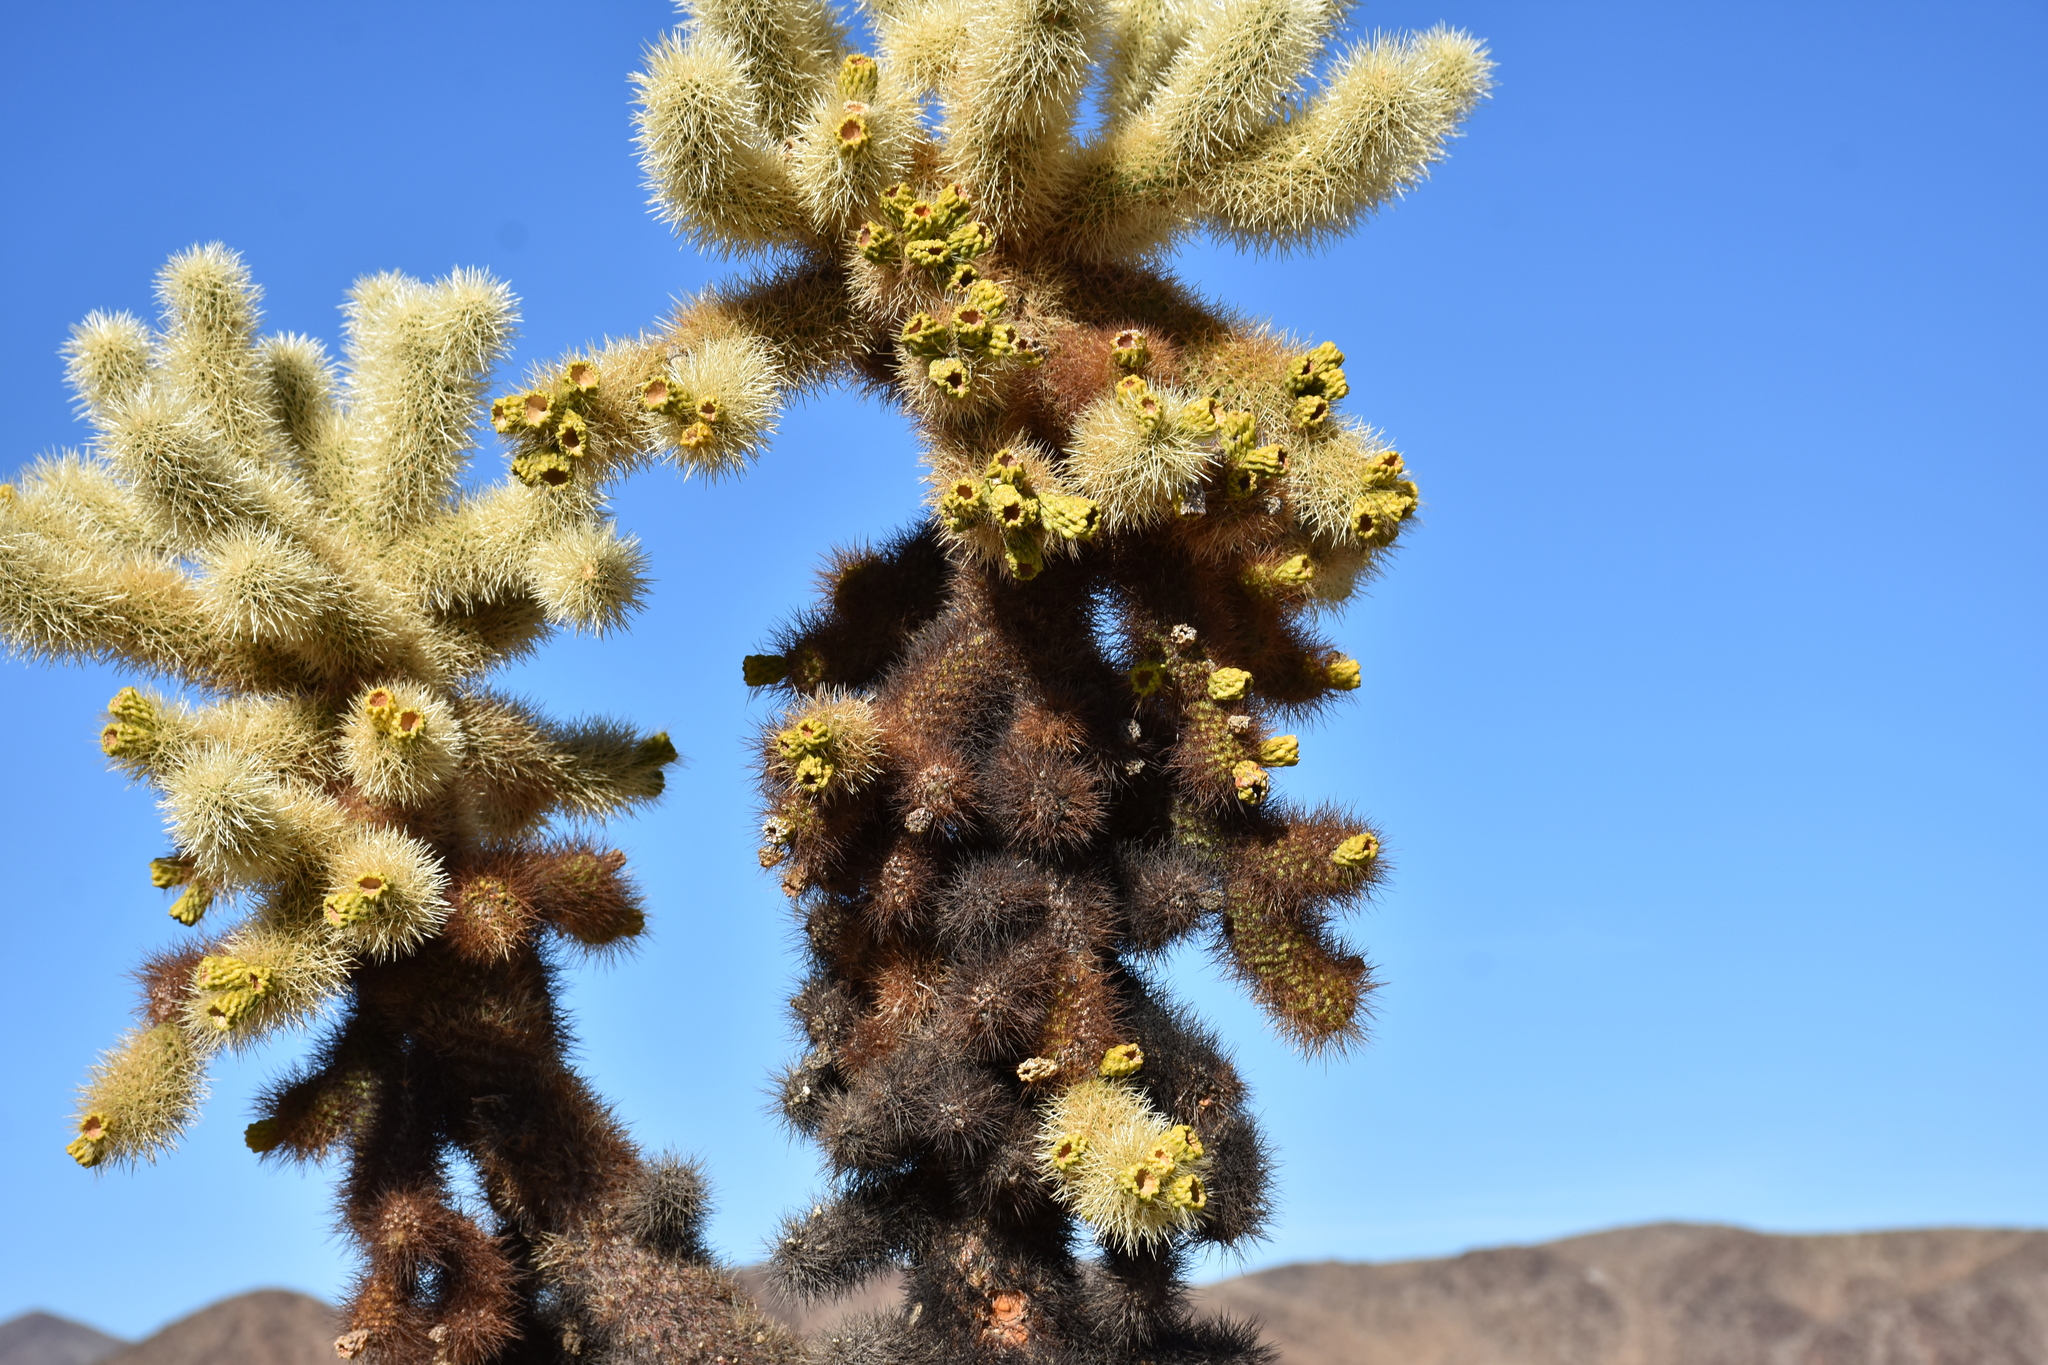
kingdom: Plantae
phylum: Tracheophyta
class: Magnoliopsida
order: Caryophyllales
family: Cactaceae
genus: Cylindropuntia
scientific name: Cylindropuntia fosbergii
